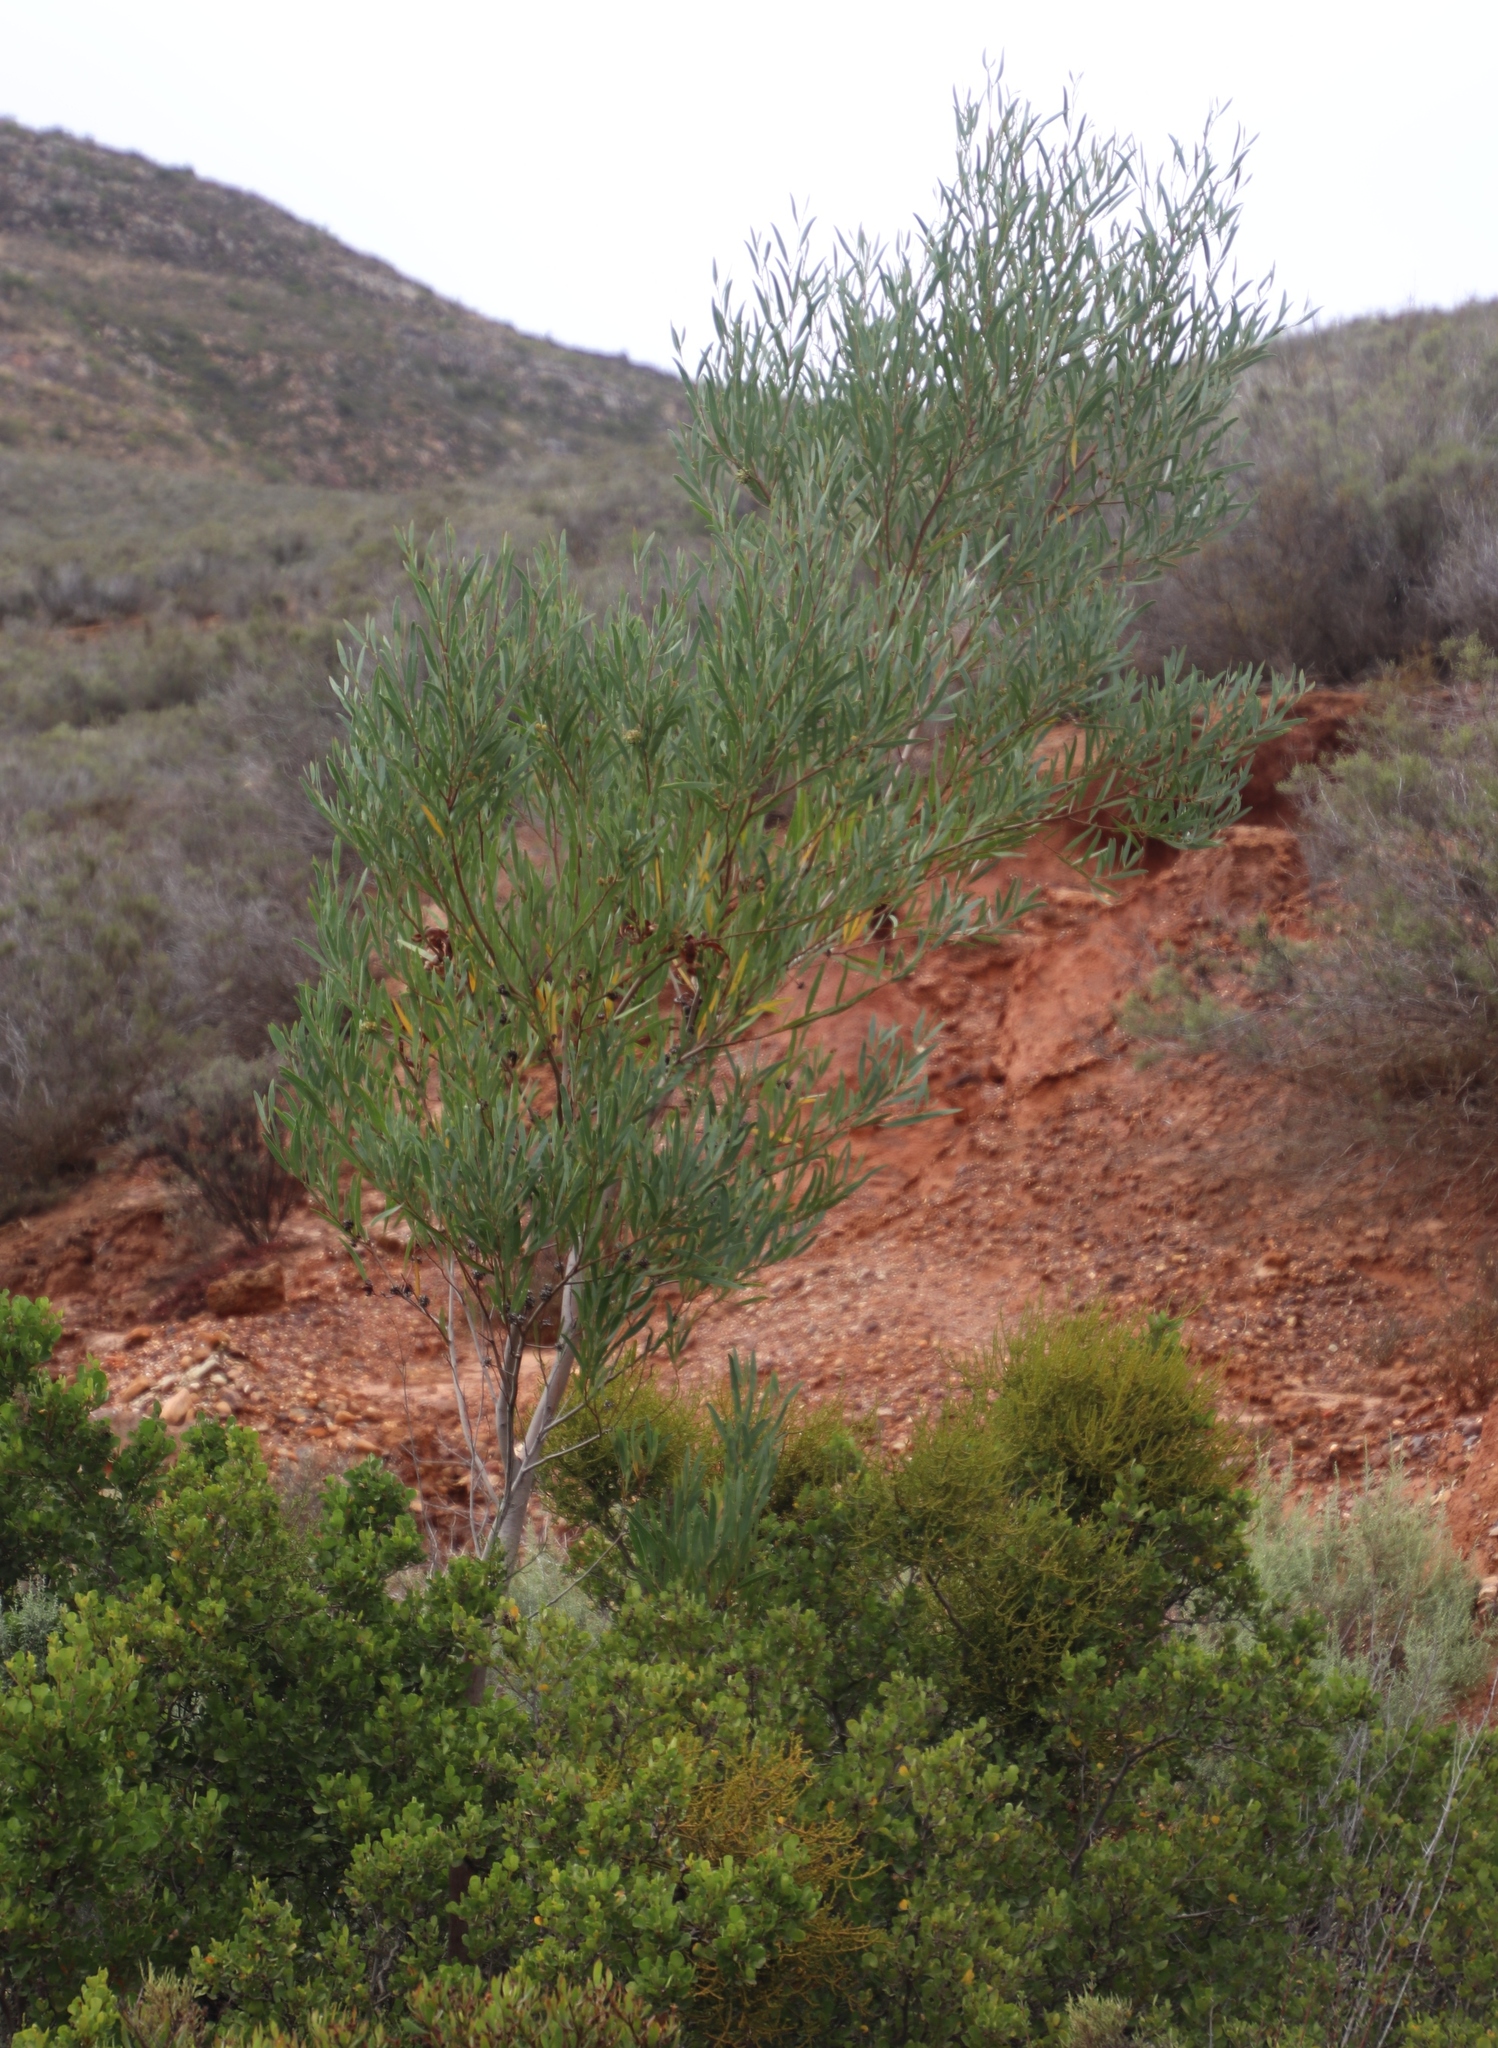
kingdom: Plantae
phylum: Tracheophyta
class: Magnoliopsida
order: Fabales
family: Fabaceae
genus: Acacia
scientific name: Acacia cyclops
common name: Coastal wattle
